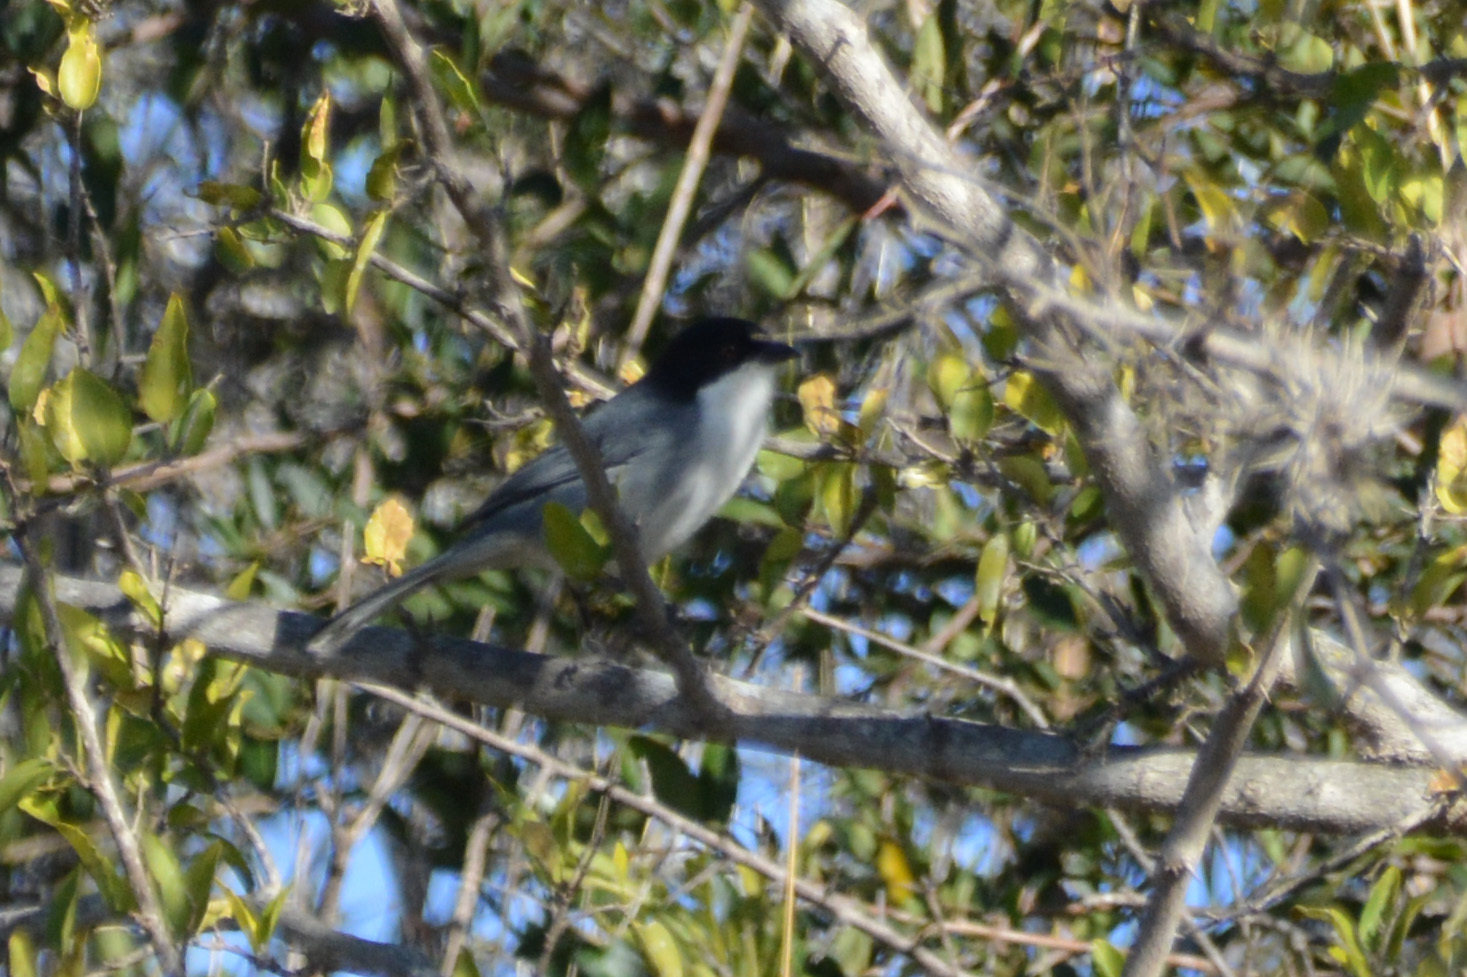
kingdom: Animalia
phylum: Chordata
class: Aves
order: Passeriformes
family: Thraupidae
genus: Microspingus
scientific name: Microspingus melanoleucus
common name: Black-capped warbling-finch
